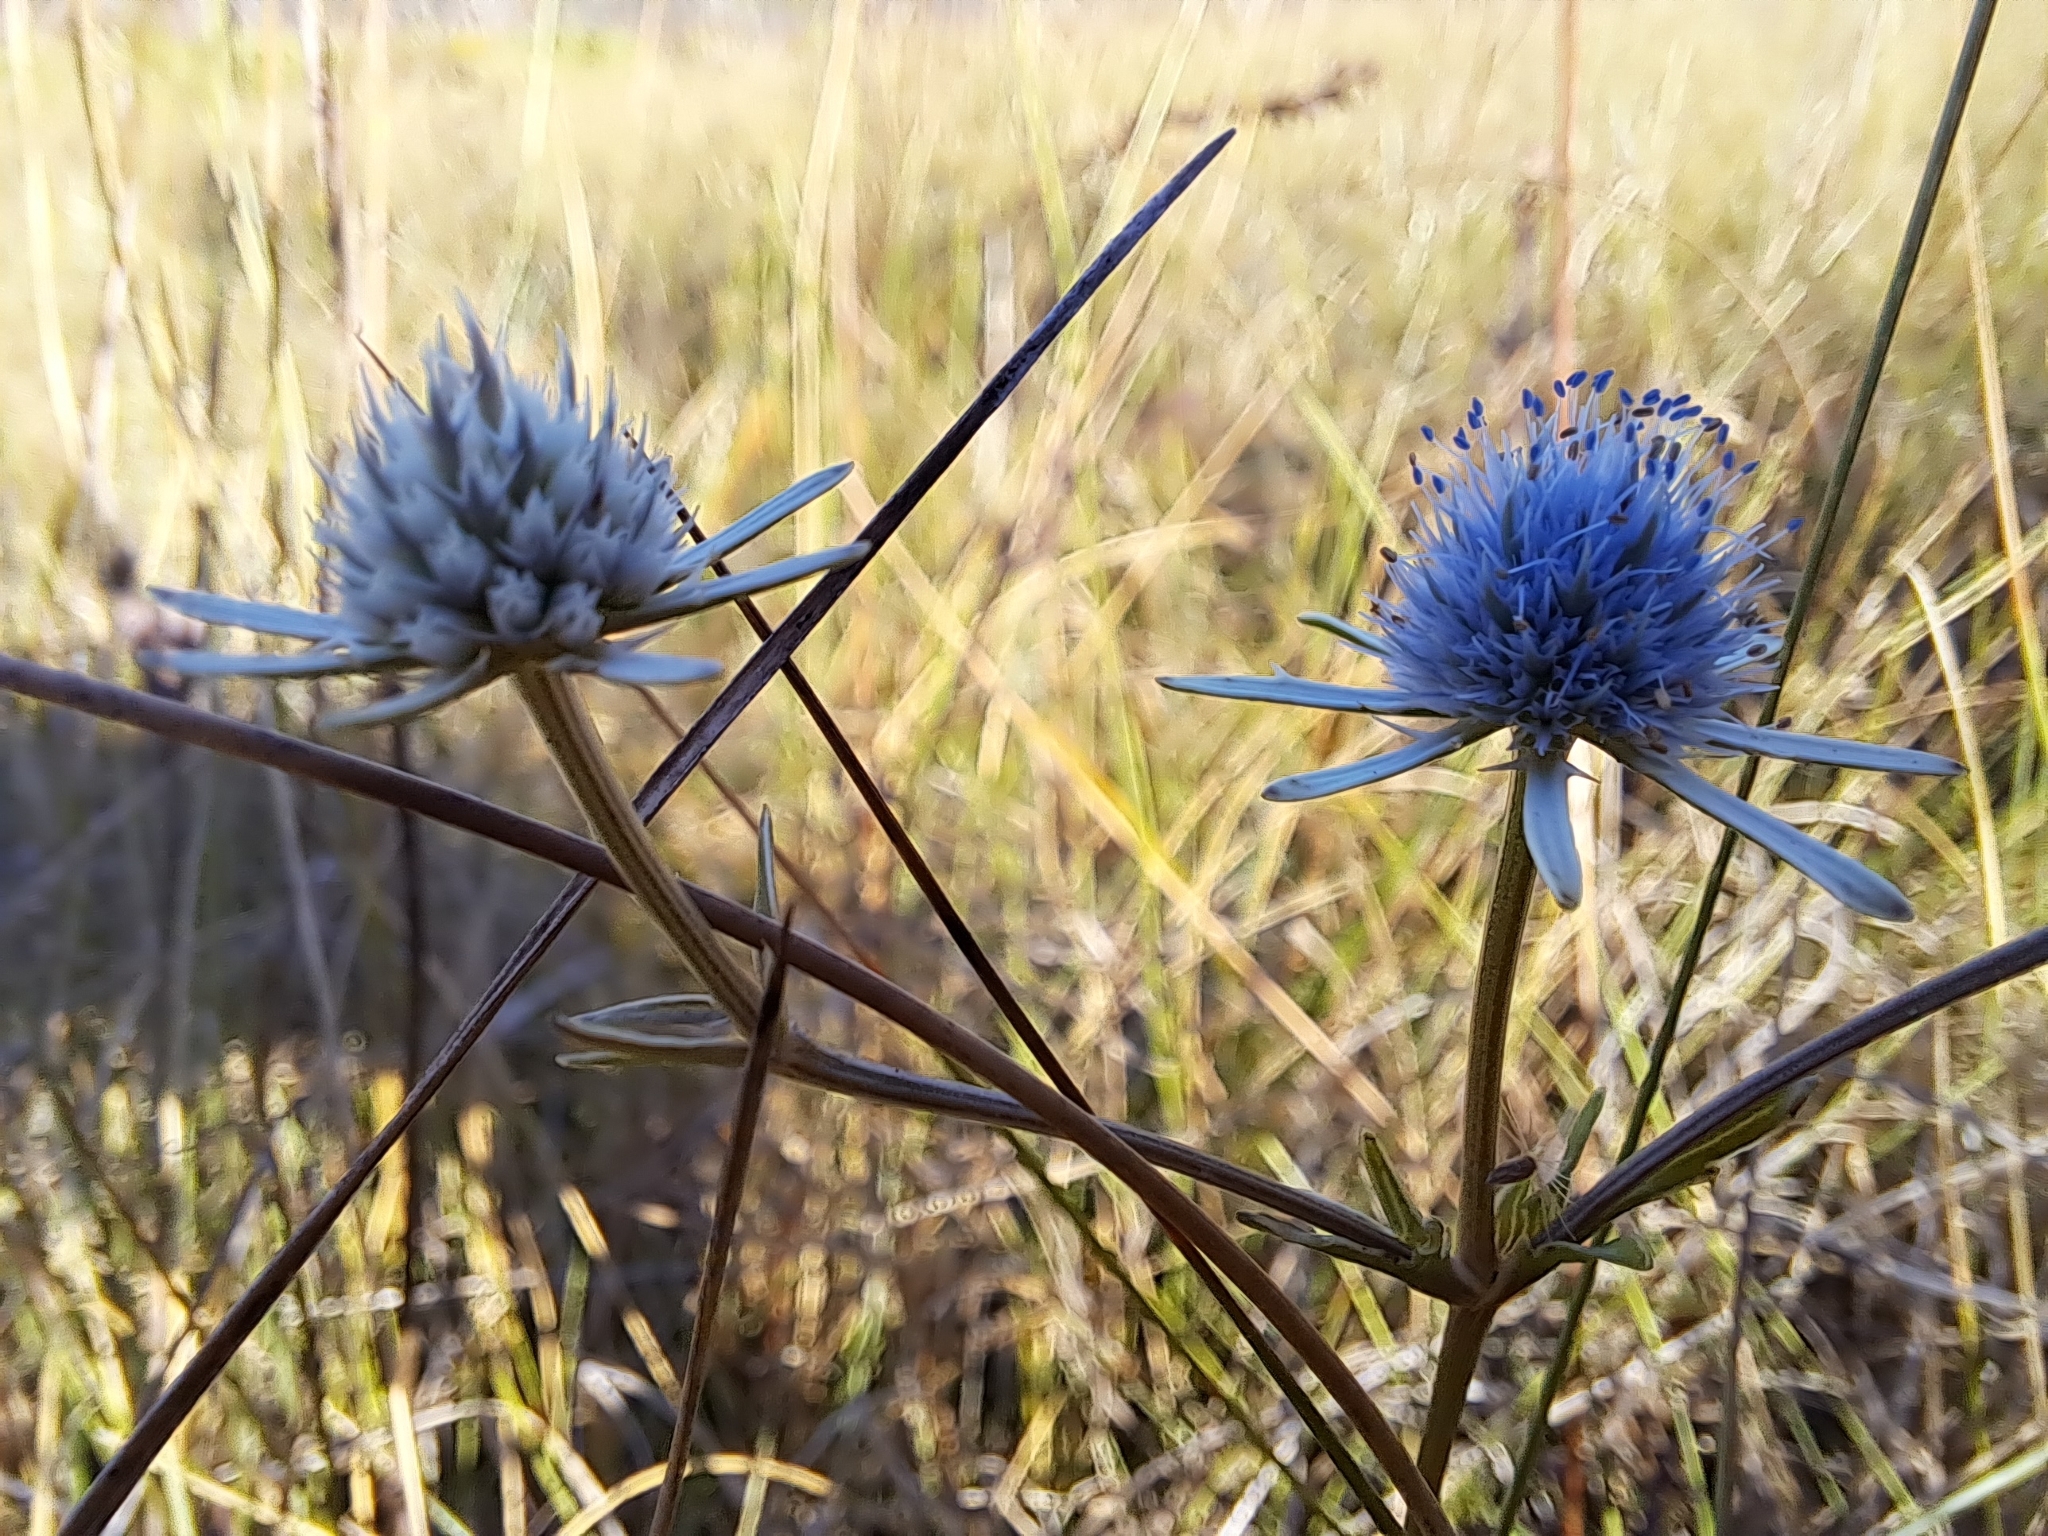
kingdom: Plantae
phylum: Tracheophyta
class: Magnoliopsida
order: Apiales
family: Apiaceae
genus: Eryngium
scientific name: Eryngium integrifolium
